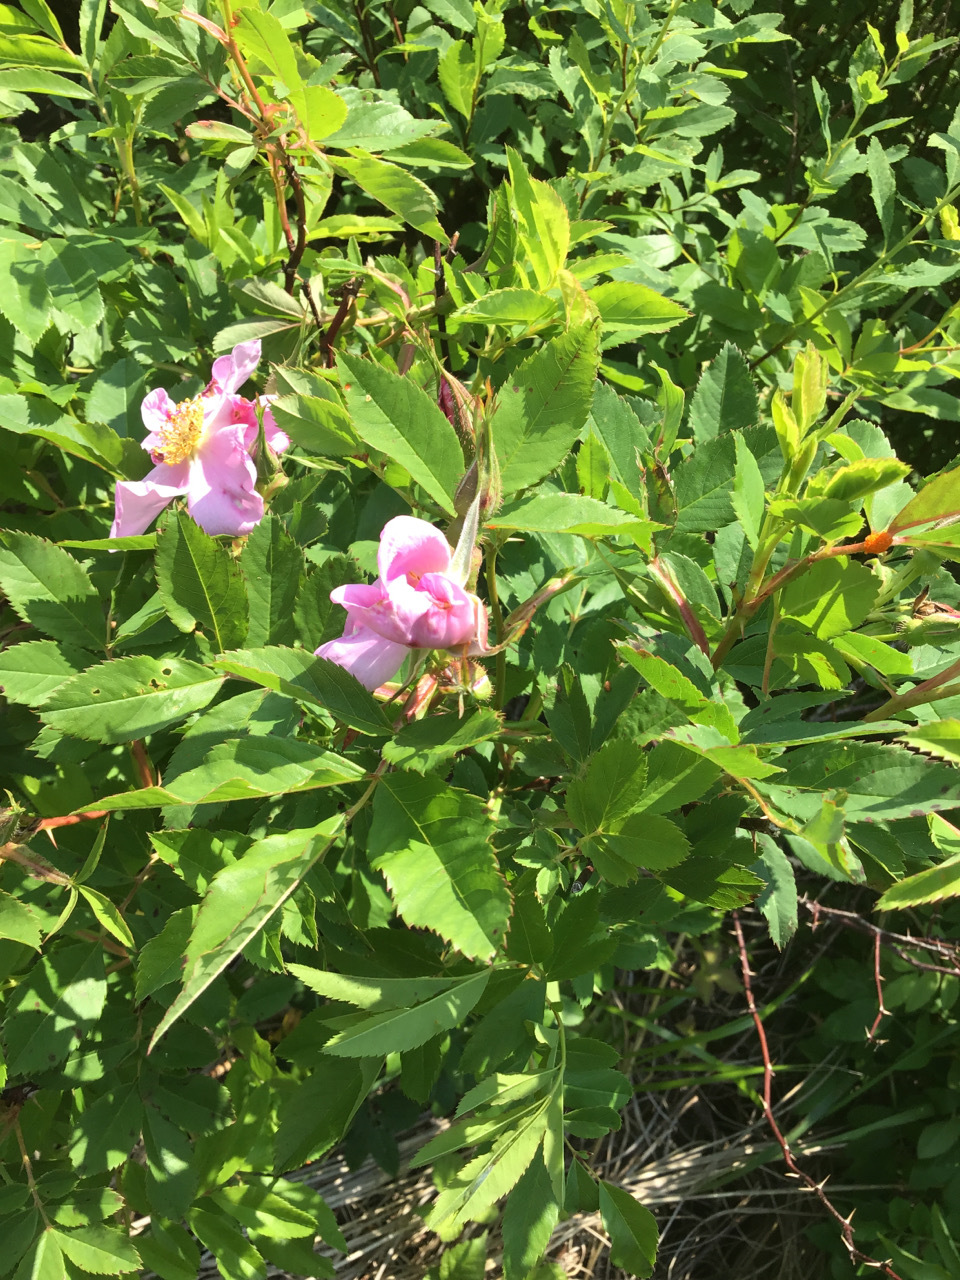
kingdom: Plantae
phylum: Tracheophyta
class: Magnoliopsida
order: Rosales
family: Rosaceae
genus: Rosa
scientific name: Rosa carolina
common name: Pasture rose
